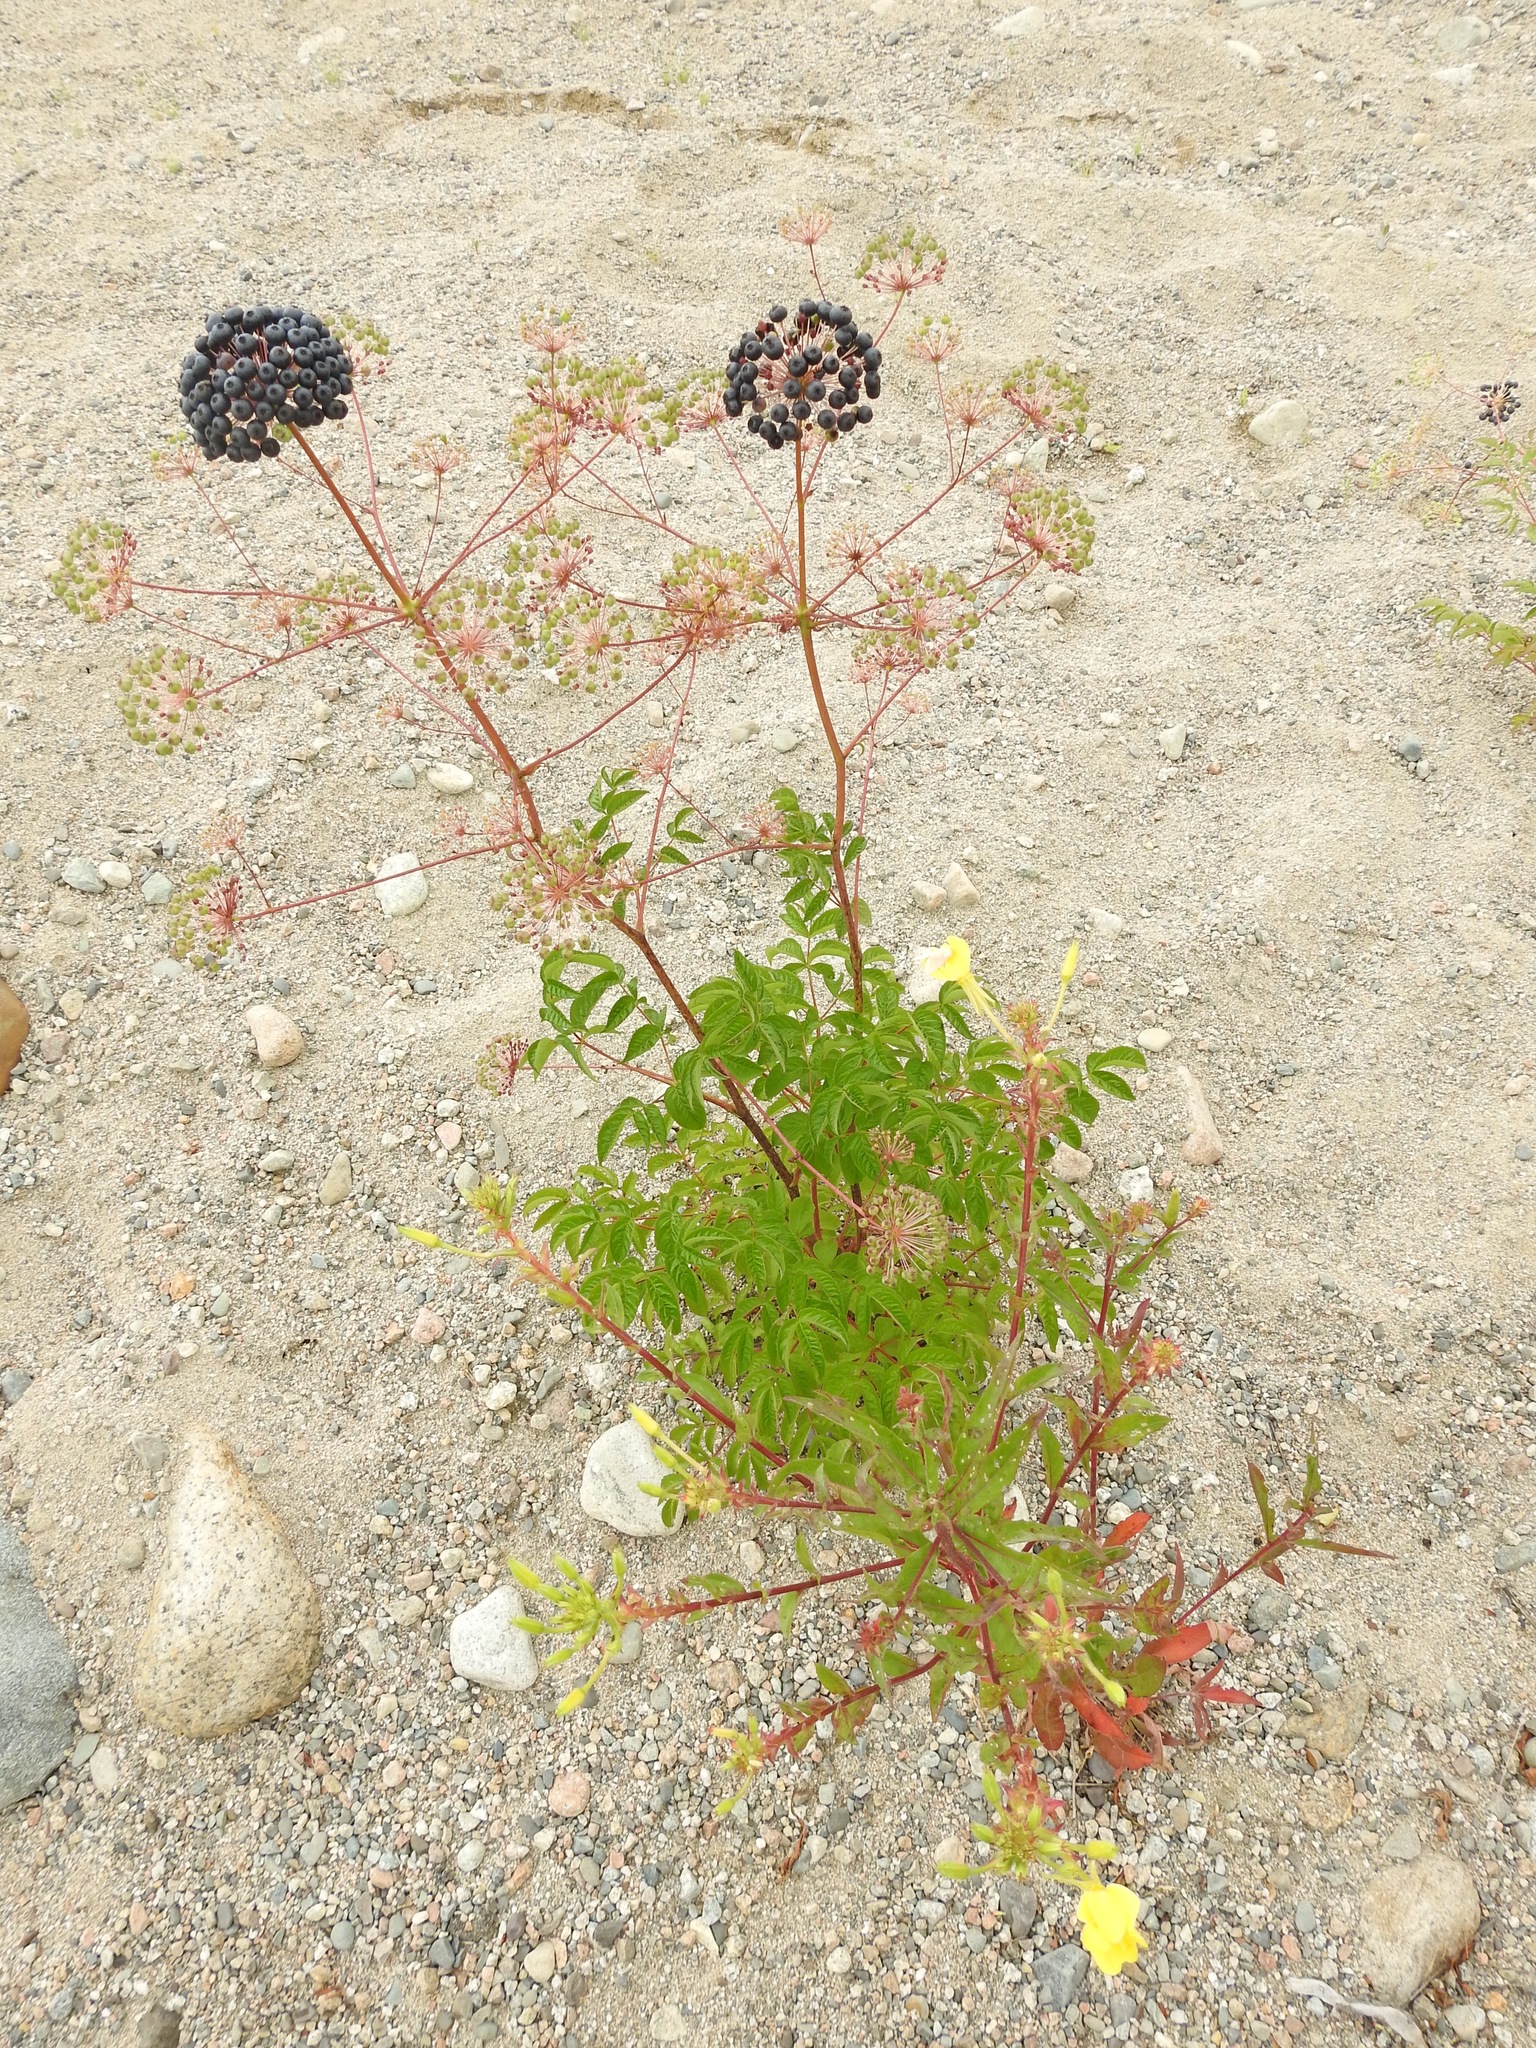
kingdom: Plantae
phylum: Tracheophyta
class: Magnoliopsida
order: Apiales
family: Araliaceae
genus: Aralia
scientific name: Aralia hispida
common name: Bristly sarsaparilla
